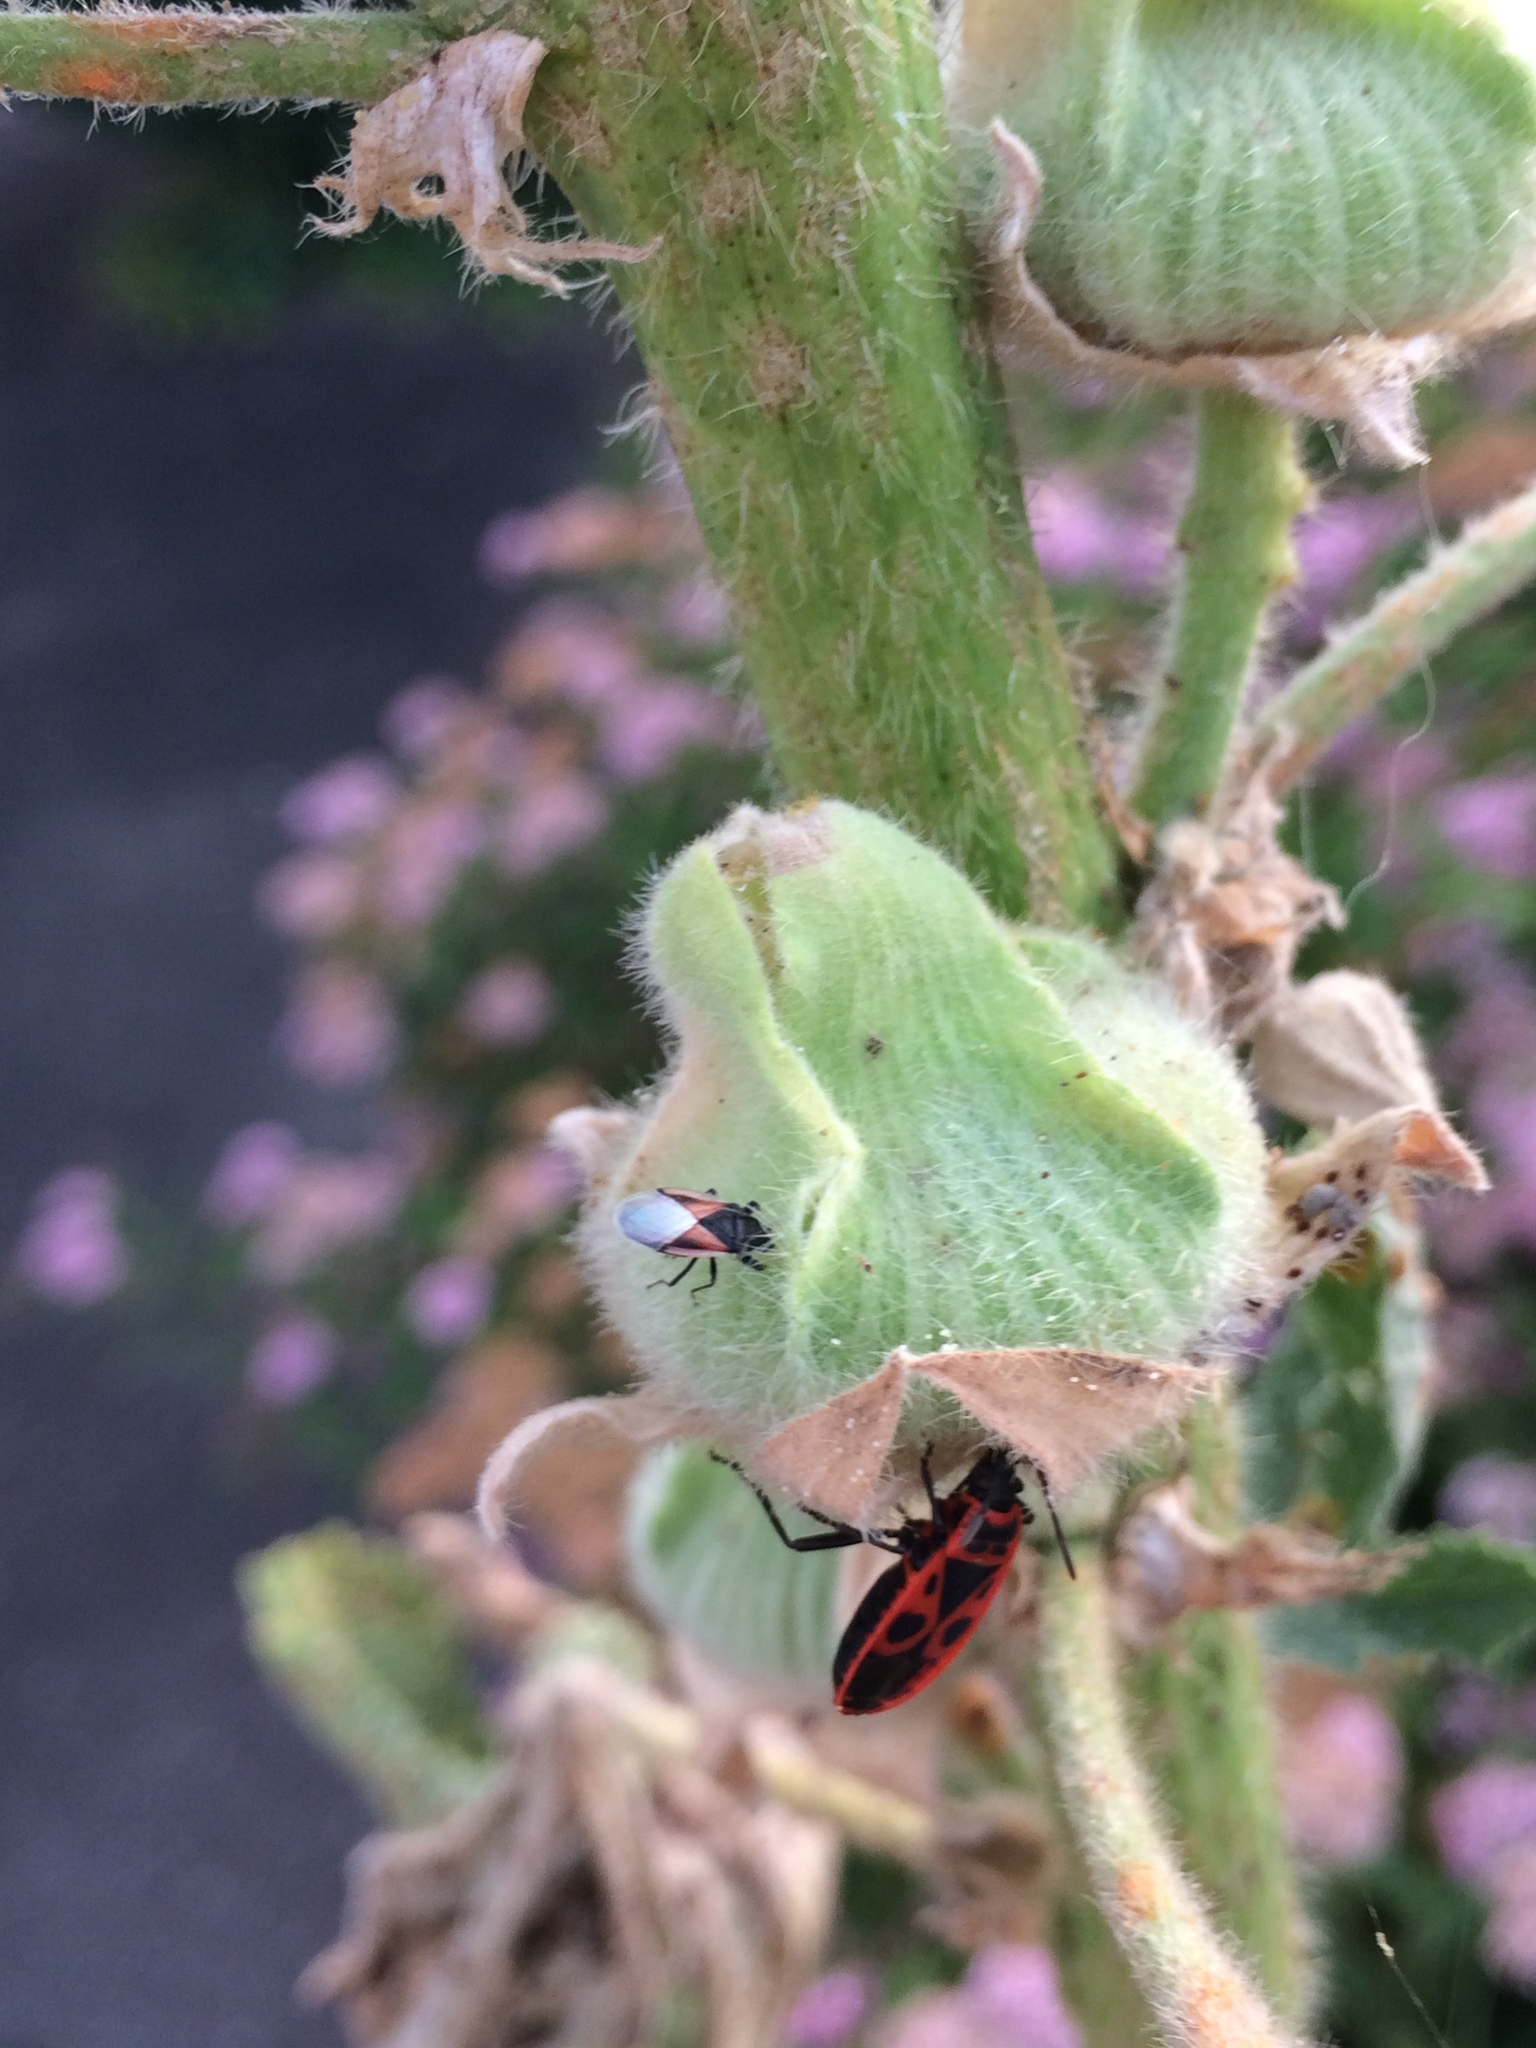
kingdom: Animalia
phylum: Arthropoda
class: Insecta
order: Hemiptera
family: Oxycarenidae
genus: Oxycarenus
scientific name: Oxycarenus lavaterae
